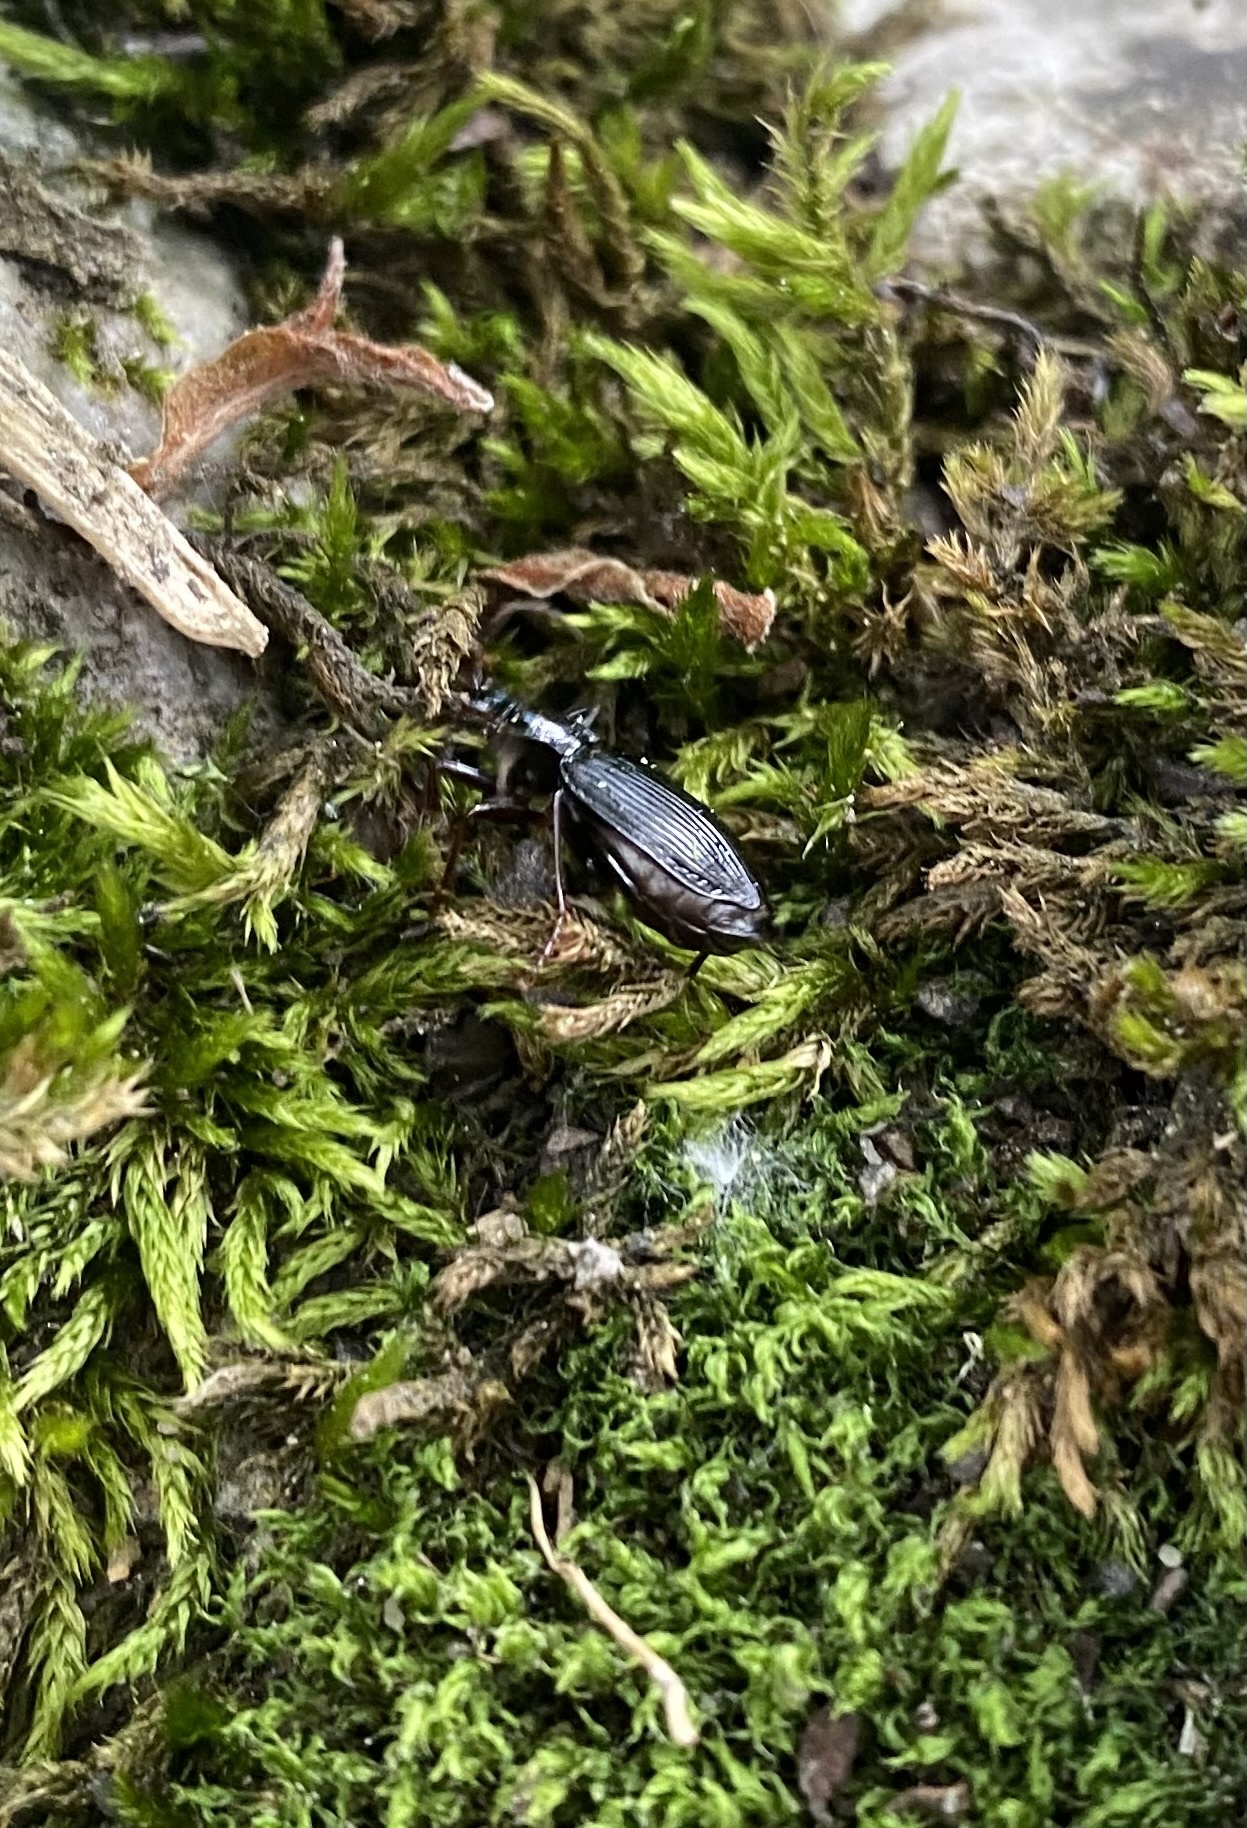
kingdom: Animalia
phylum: Arthropoda
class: Insecta
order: Coleoptera
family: Carabidae
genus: Platynus
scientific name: Platynus assimilis
